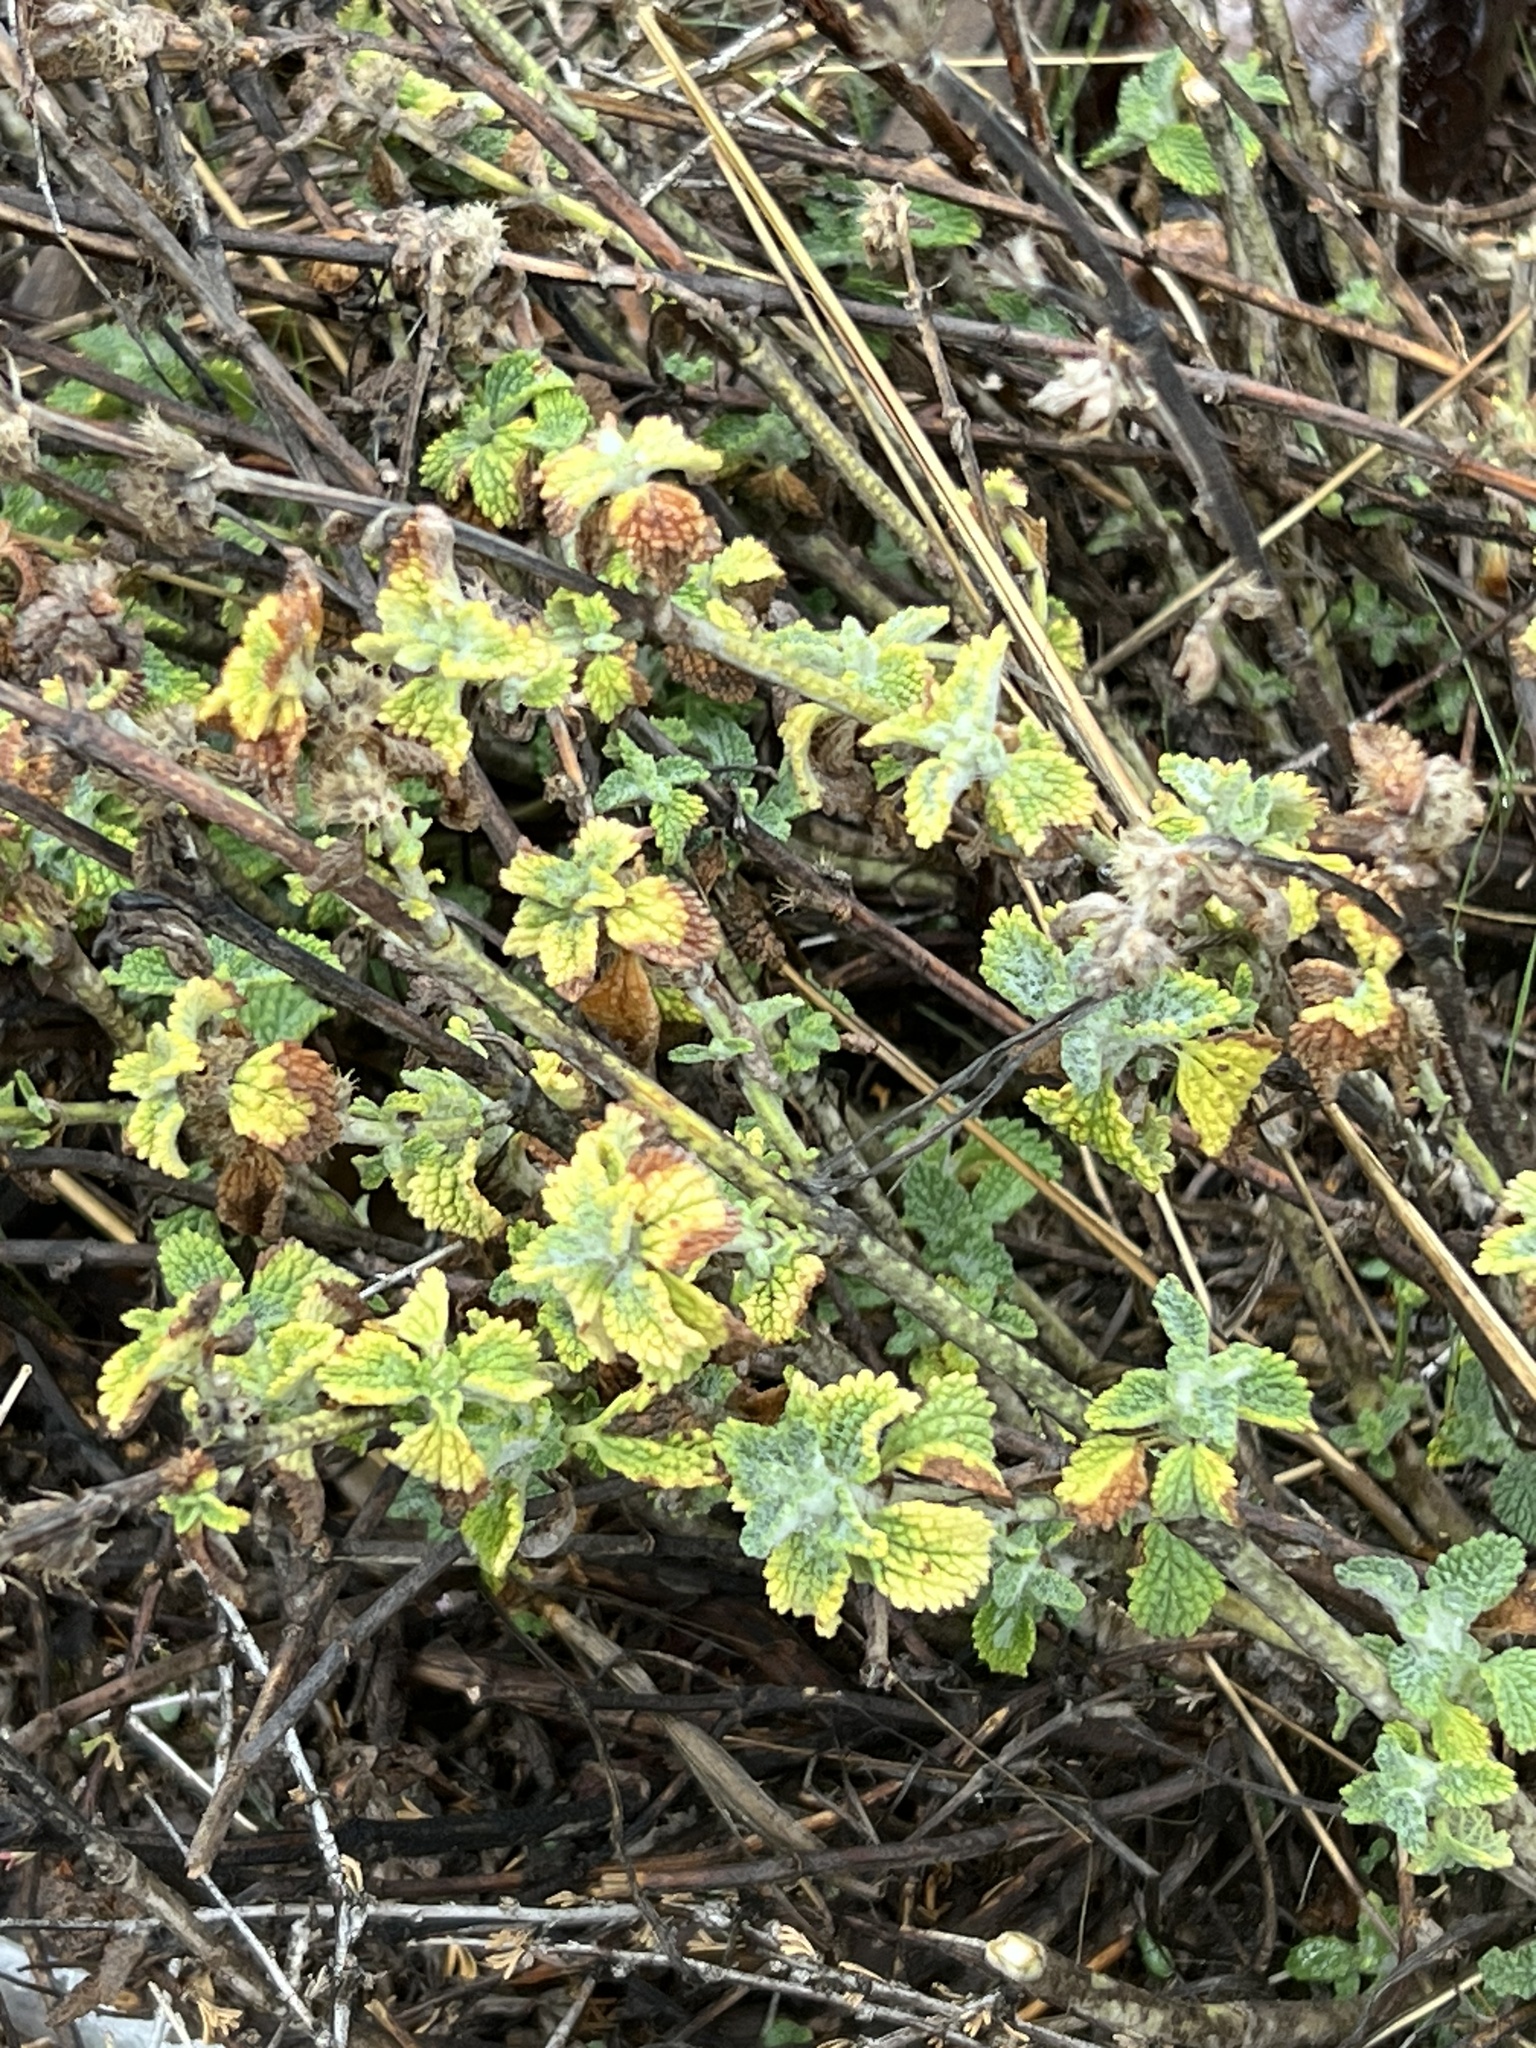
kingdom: Plantae
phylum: Tracheophyta
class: Magnoliopsida
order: Lamiales
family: Lamiaceae
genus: Marrubium
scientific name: Marrubium vulgare
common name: Horehound
